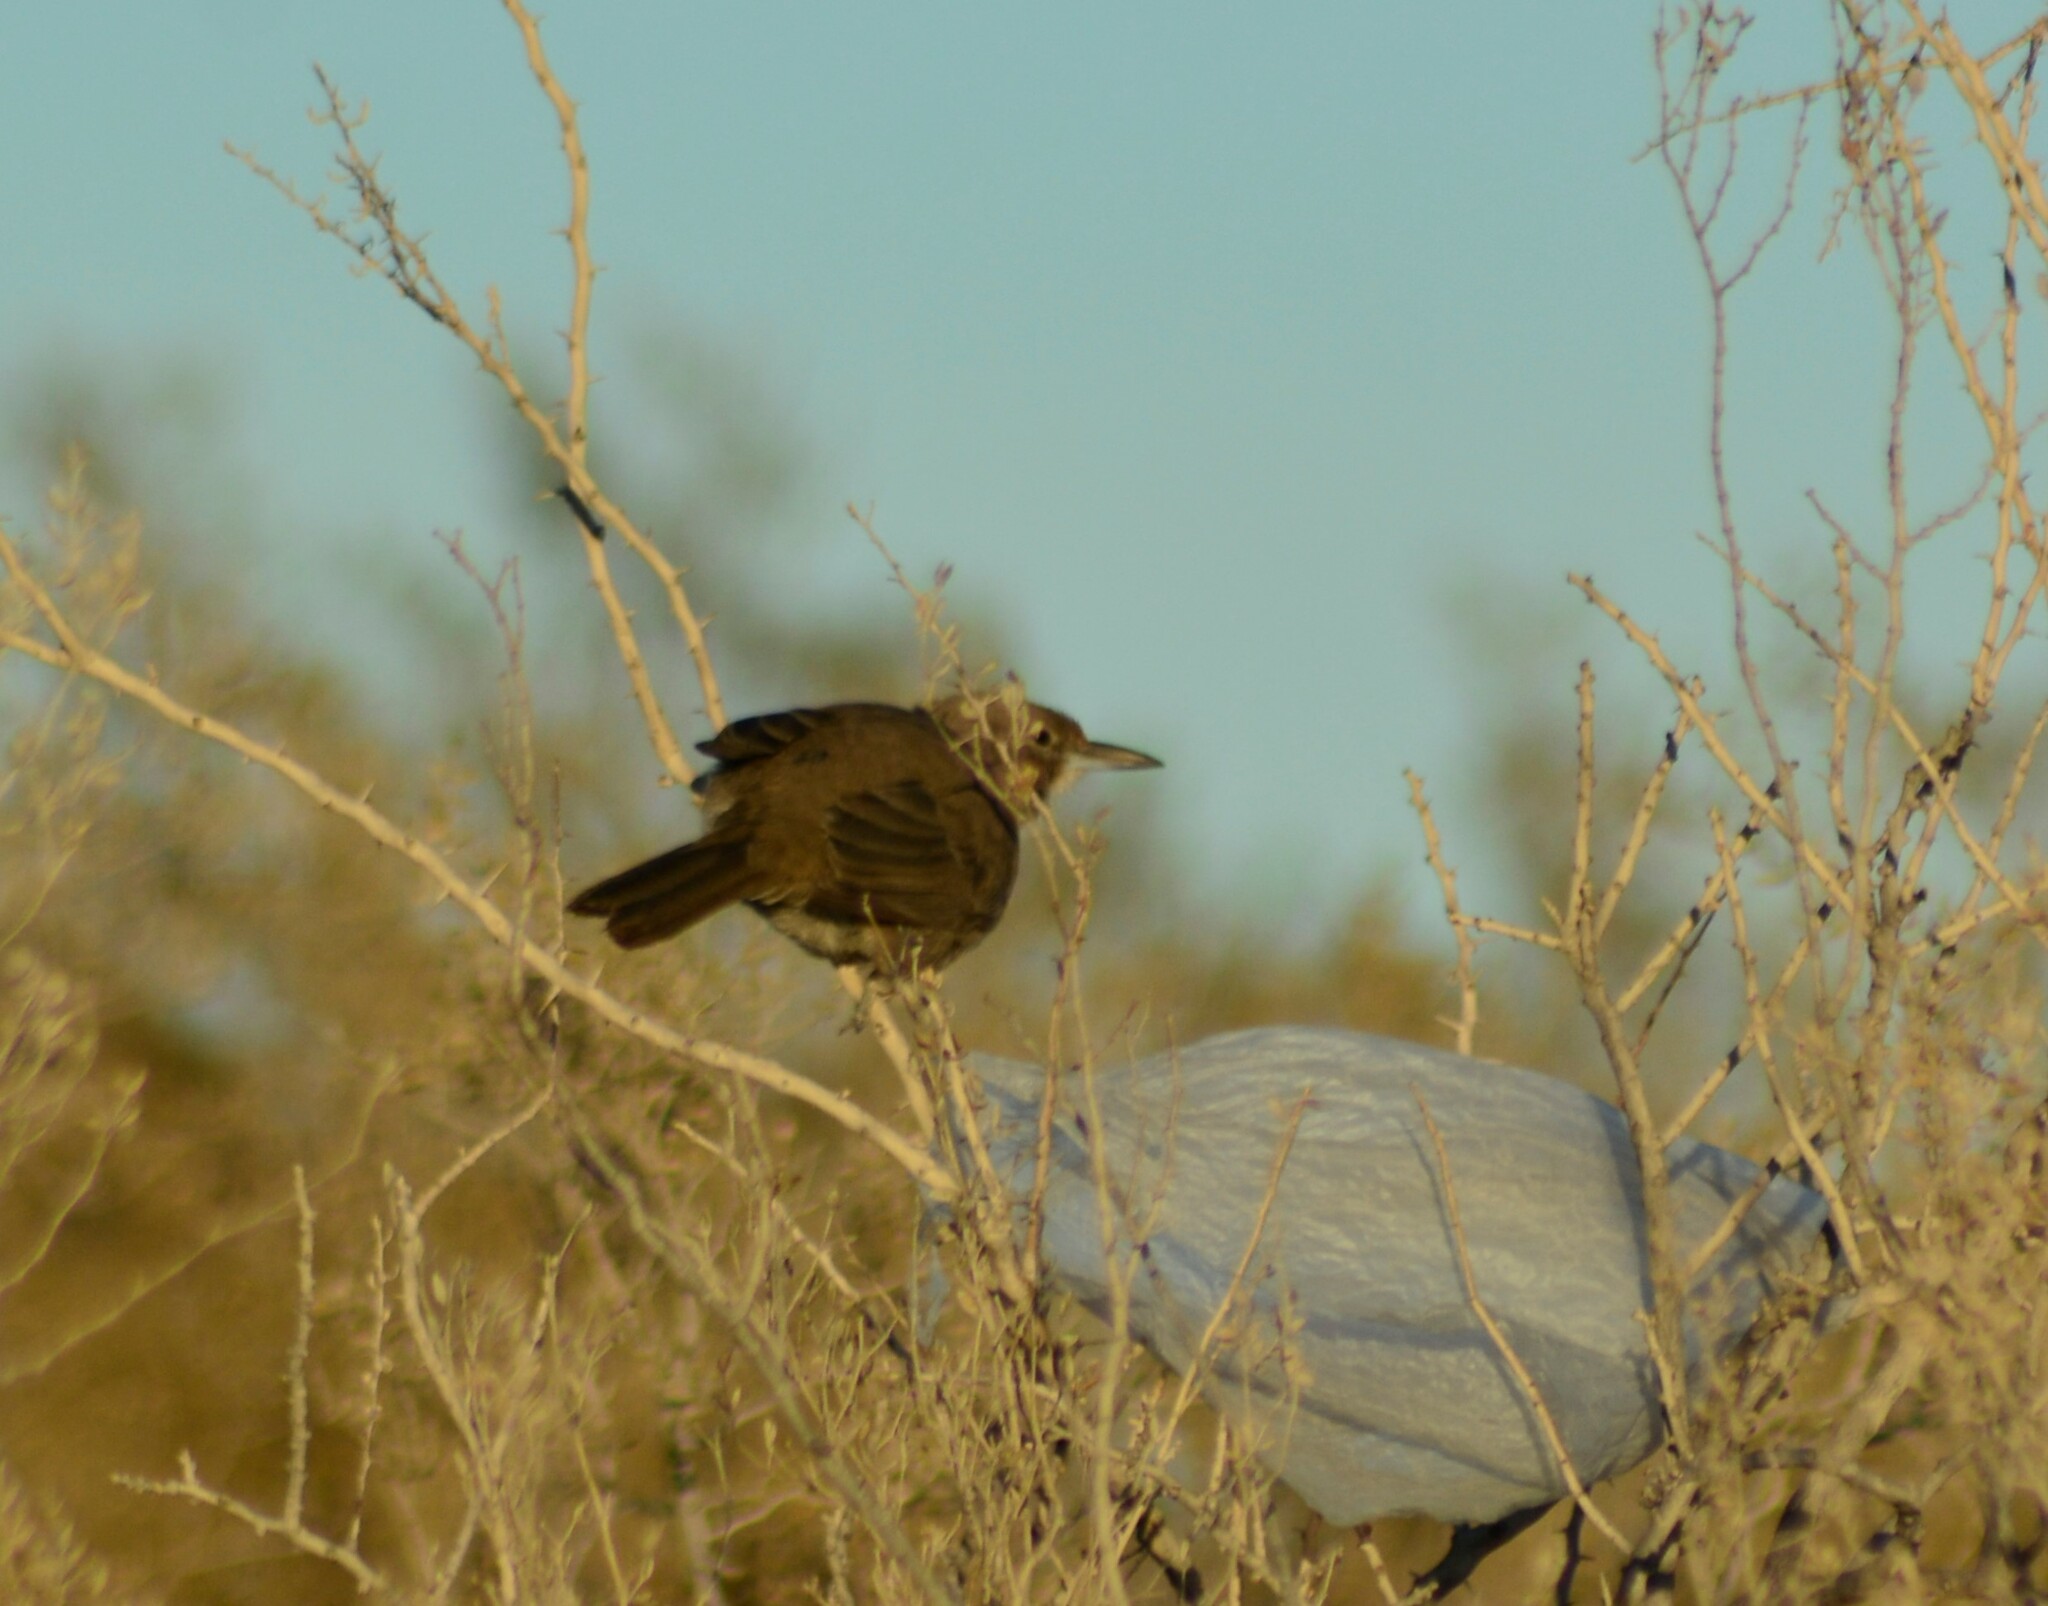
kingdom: Animalia
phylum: Chordata
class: Aves
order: Passeriformes
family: Furnariidae
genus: Pseudoseisura
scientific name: Pseudoseisura gutturalis
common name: White-throated cacholote
